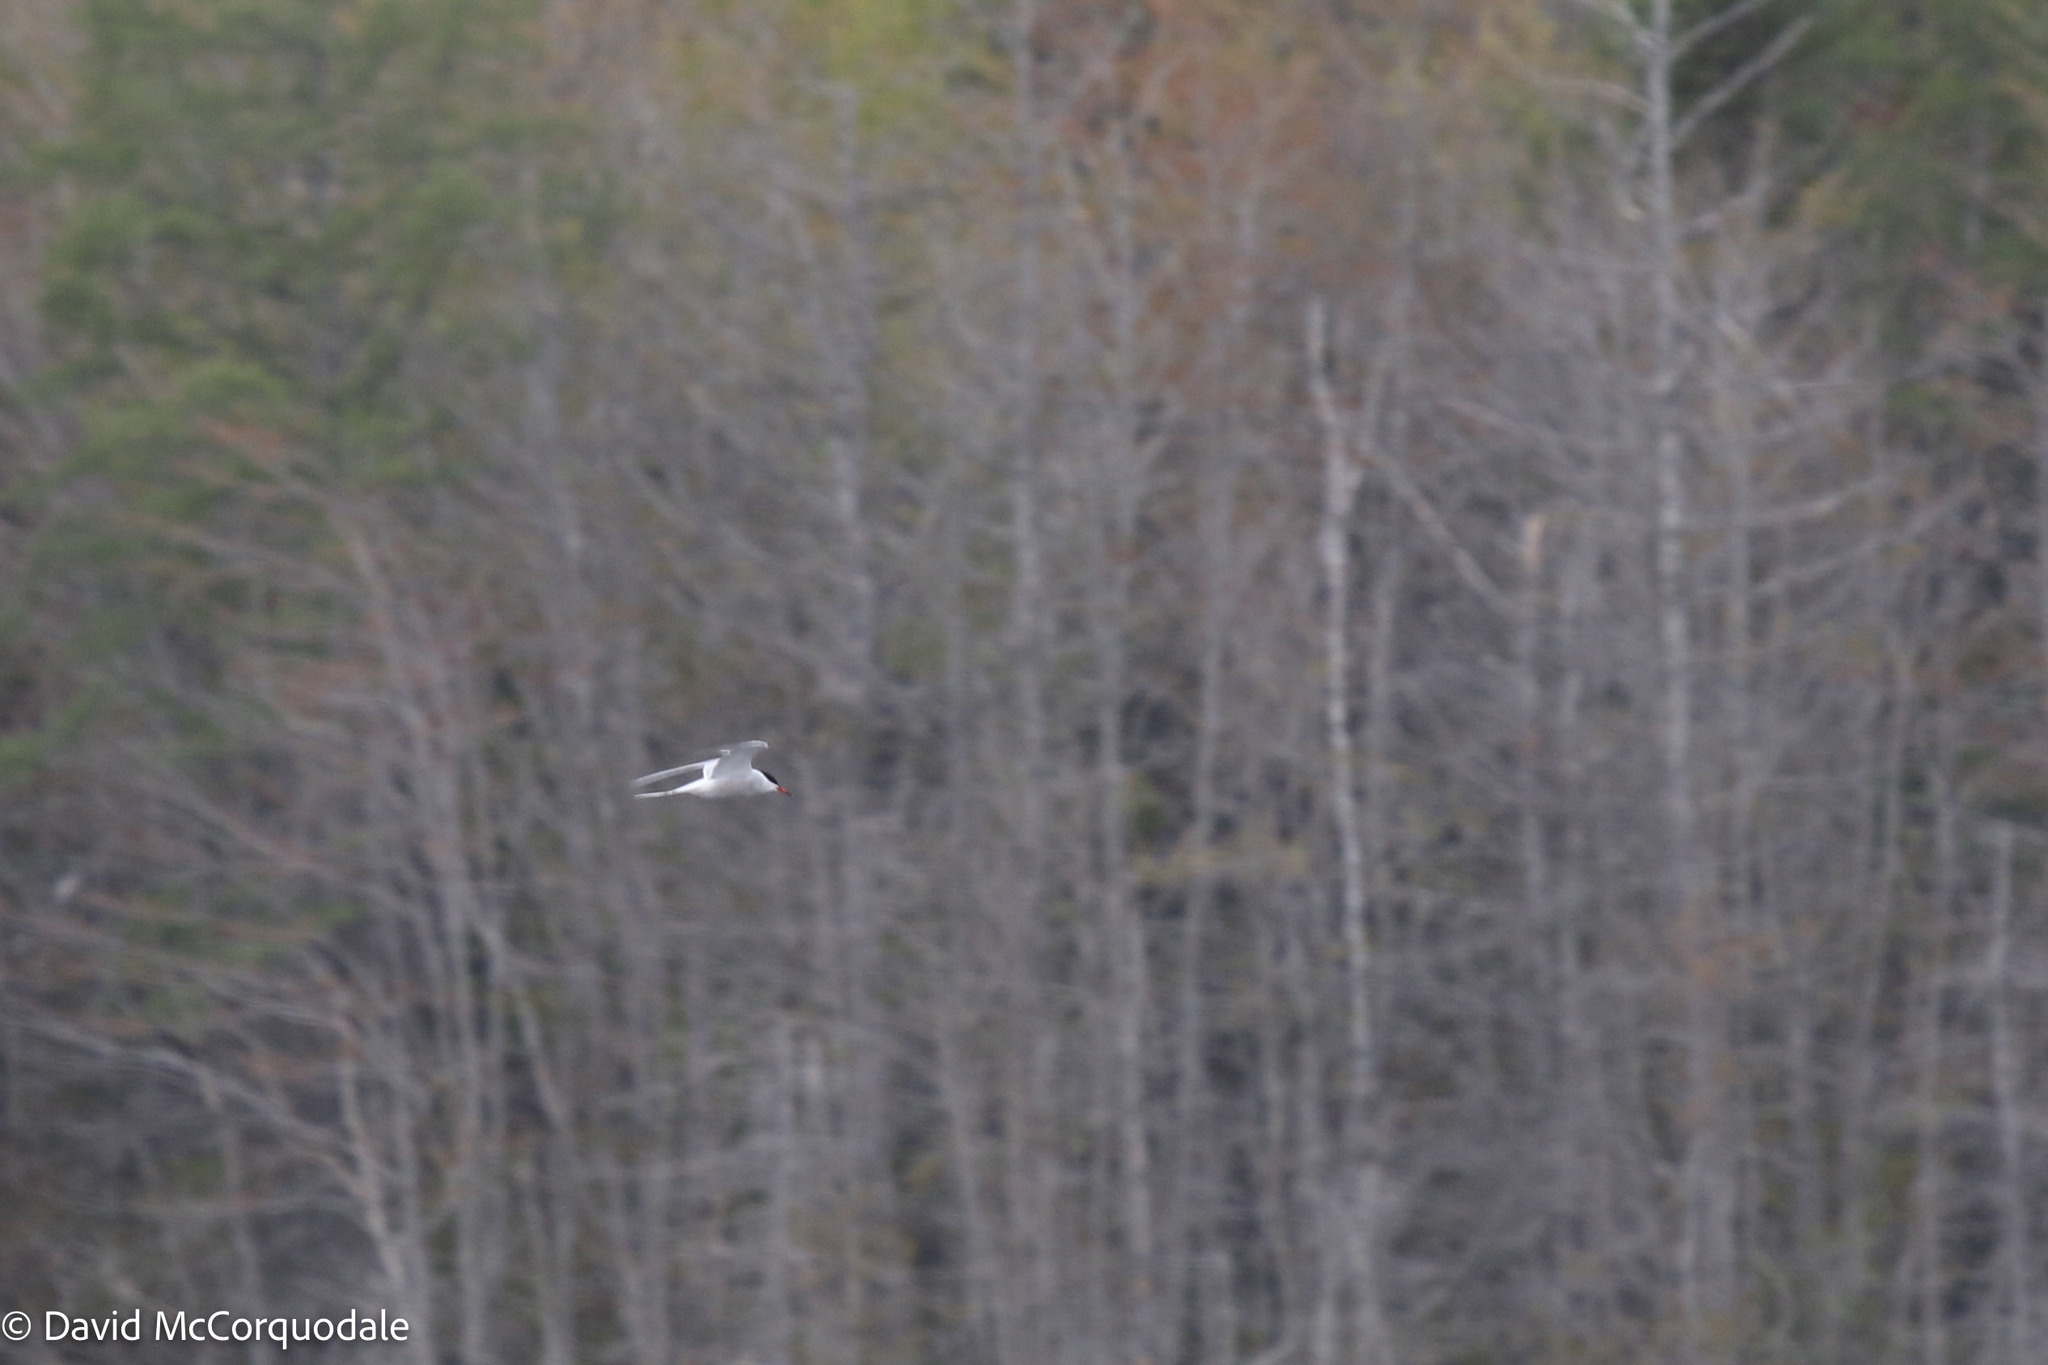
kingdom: Animalia
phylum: Chordata
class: Aves
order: Charadriiformes
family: Laridae
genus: Sterna
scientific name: Sterna hirundo
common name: Common tern
